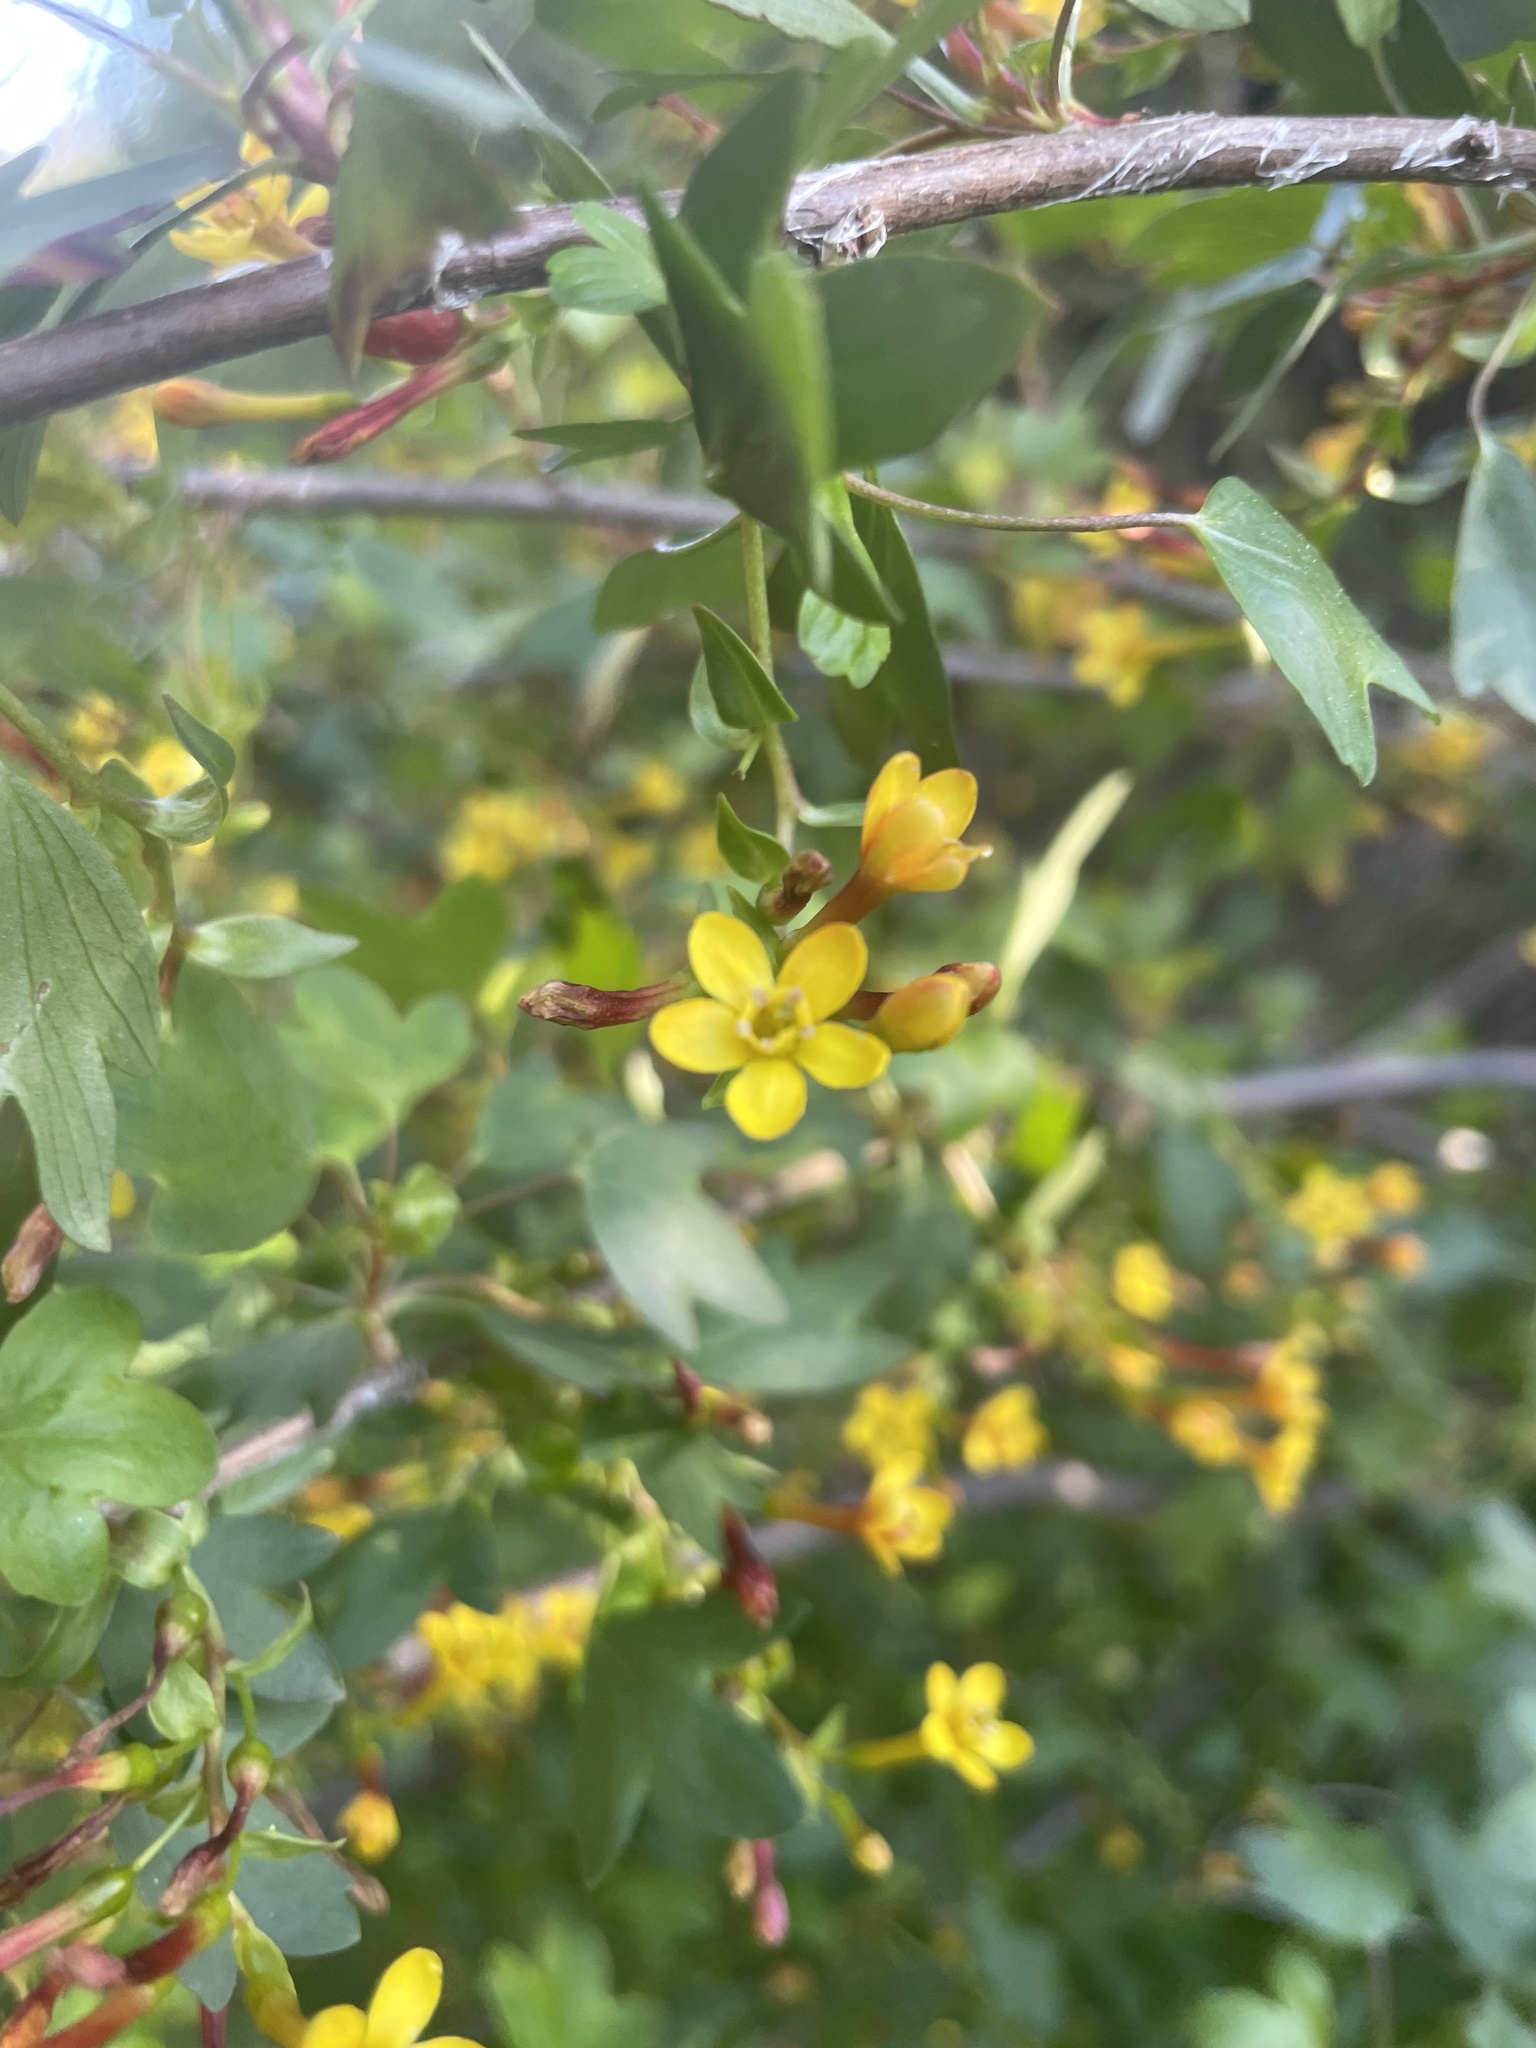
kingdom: Plantae
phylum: Tracheophyta
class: Magnoliopsida
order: Saxifragales
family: Grossulariaceae
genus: Ribes
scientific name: Ribes aureum
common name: Golden currant
